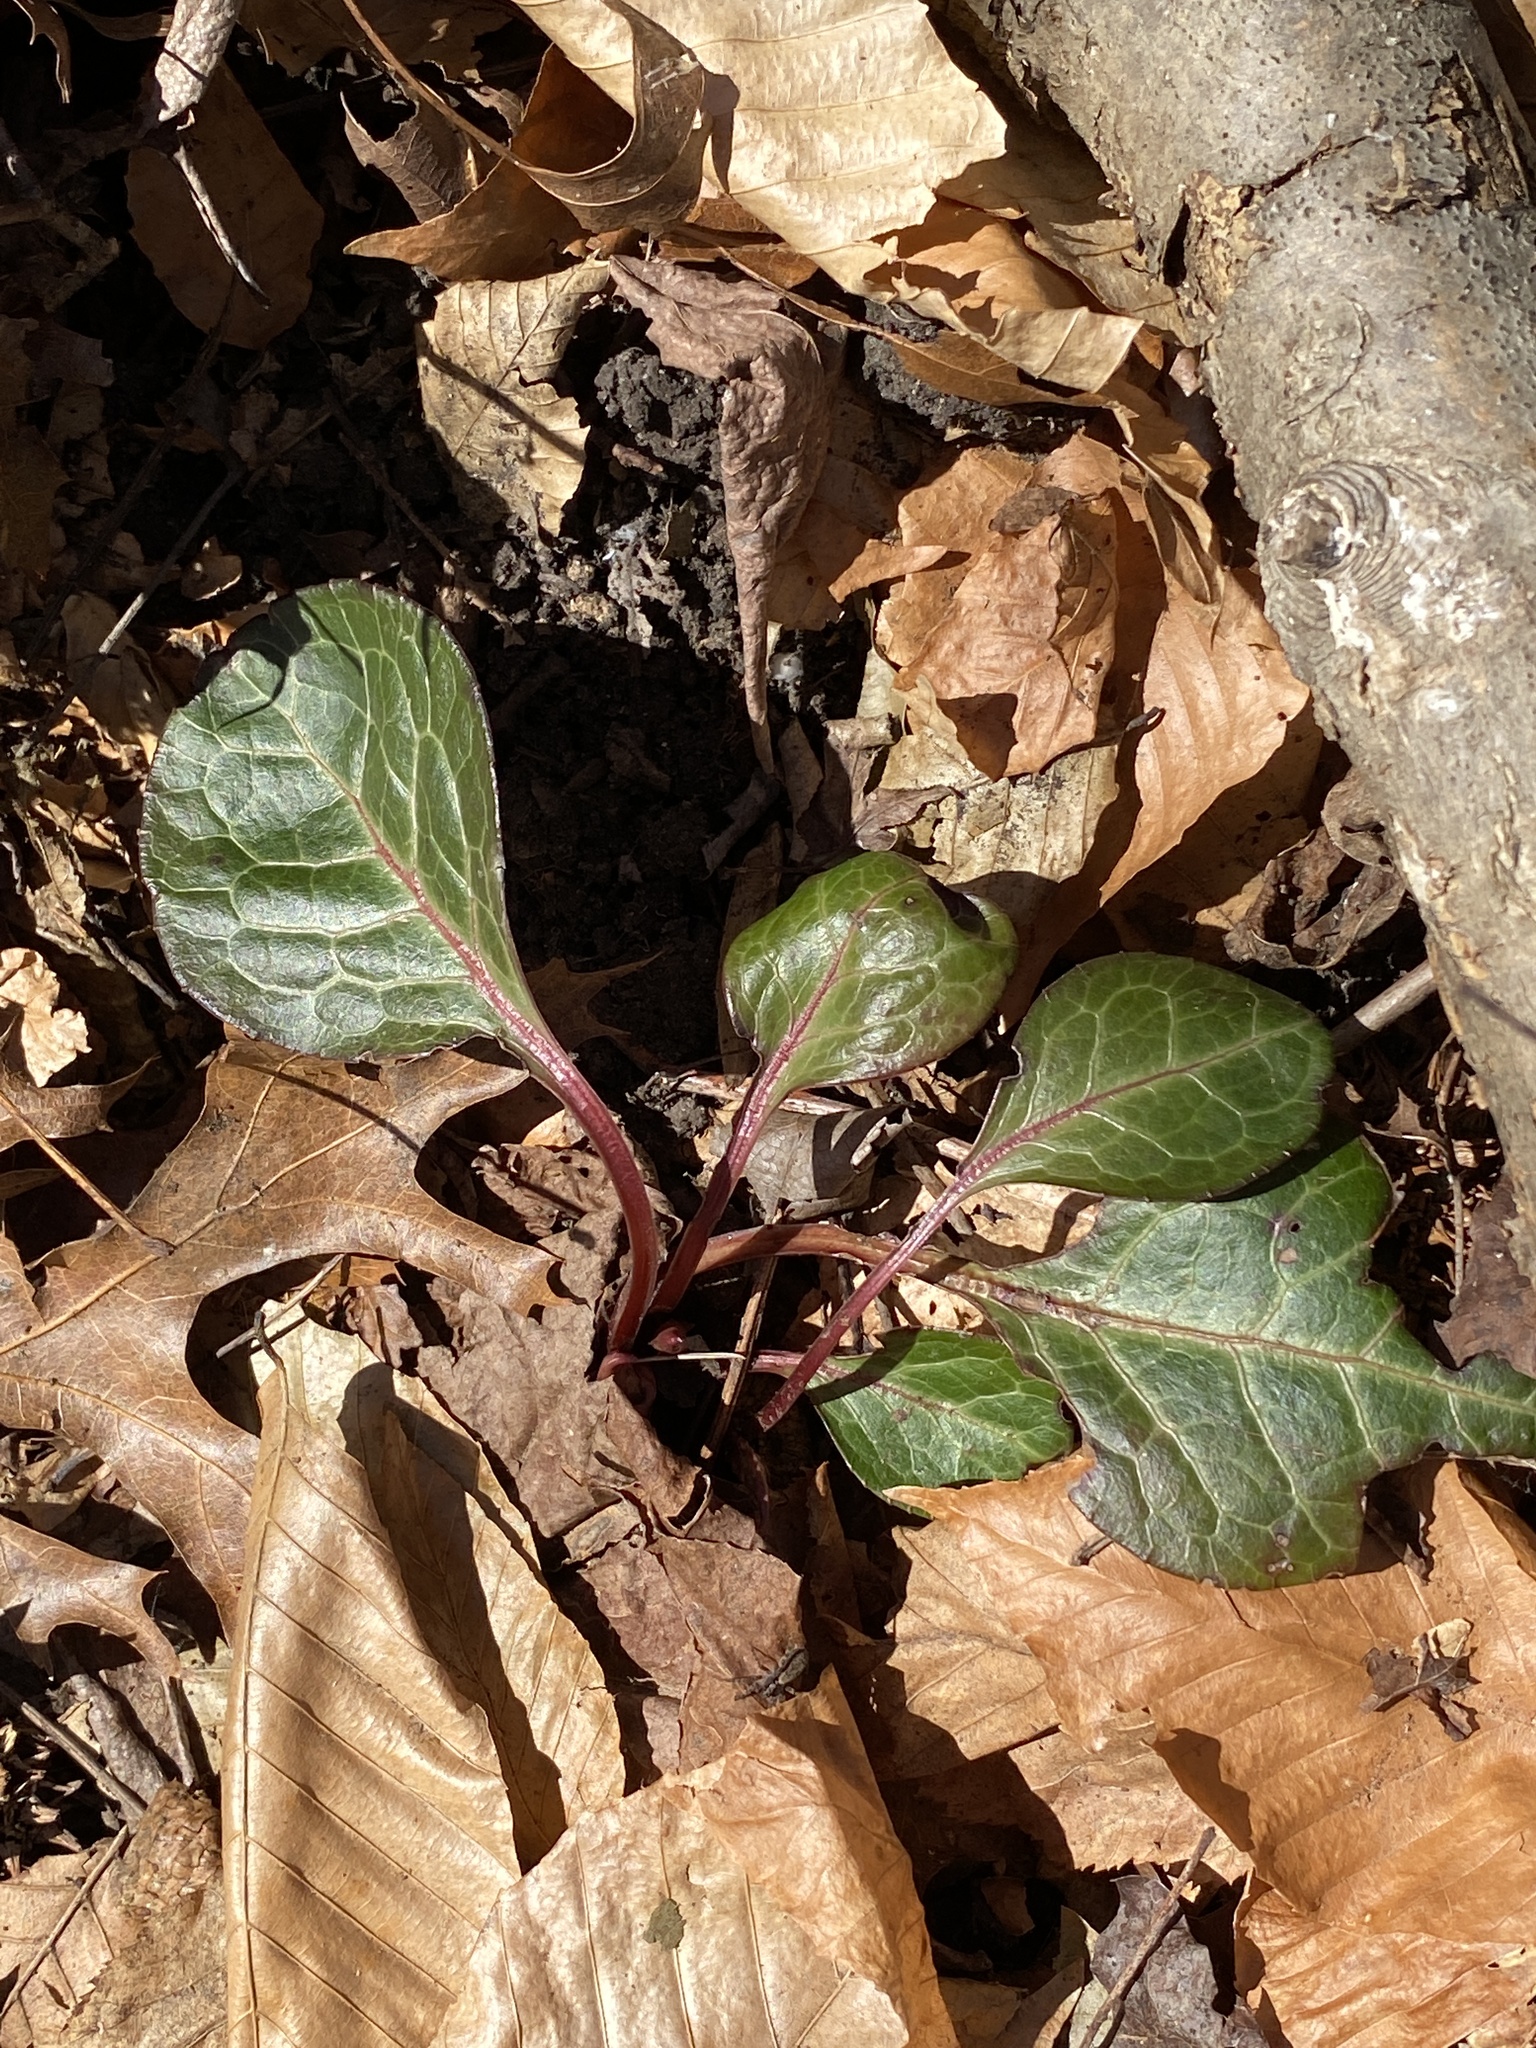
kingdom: Plantae
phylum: Tracheophyta
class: Magnoliopsida
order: Ericales
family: Ericaceae
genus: Pyrola
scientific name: Pyrola americana
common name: American wintergreen
